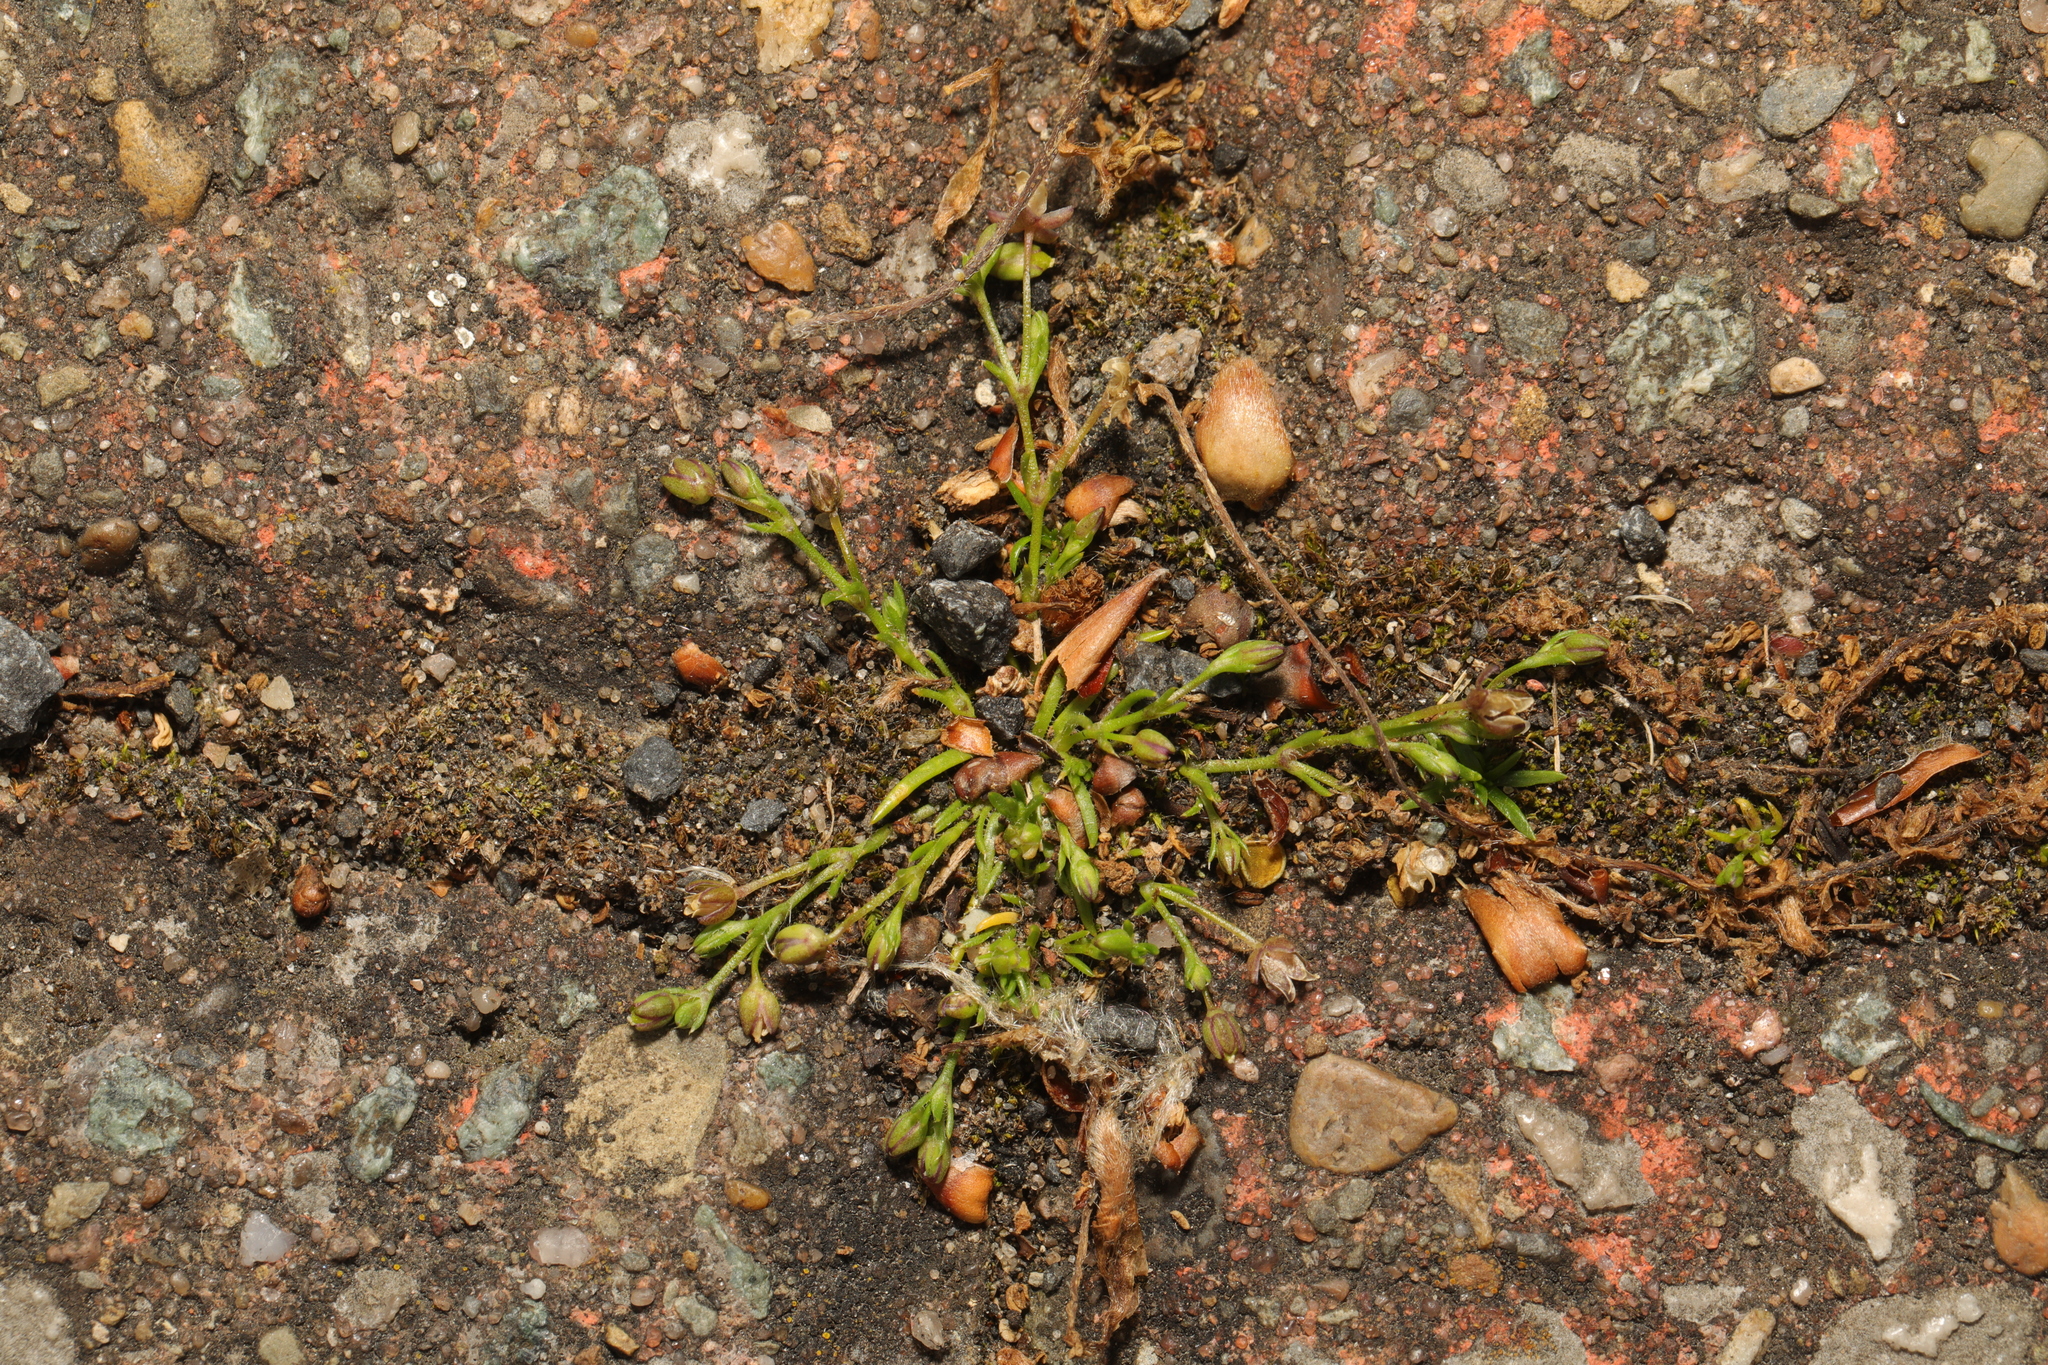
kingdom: Plantae
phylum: Tracheophyta
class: Magnoliopsida
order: Caryophyllales
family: Caryophyllaceae
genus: Sagina
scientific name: Sagina procumbens
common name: Procumbent pearlwort
